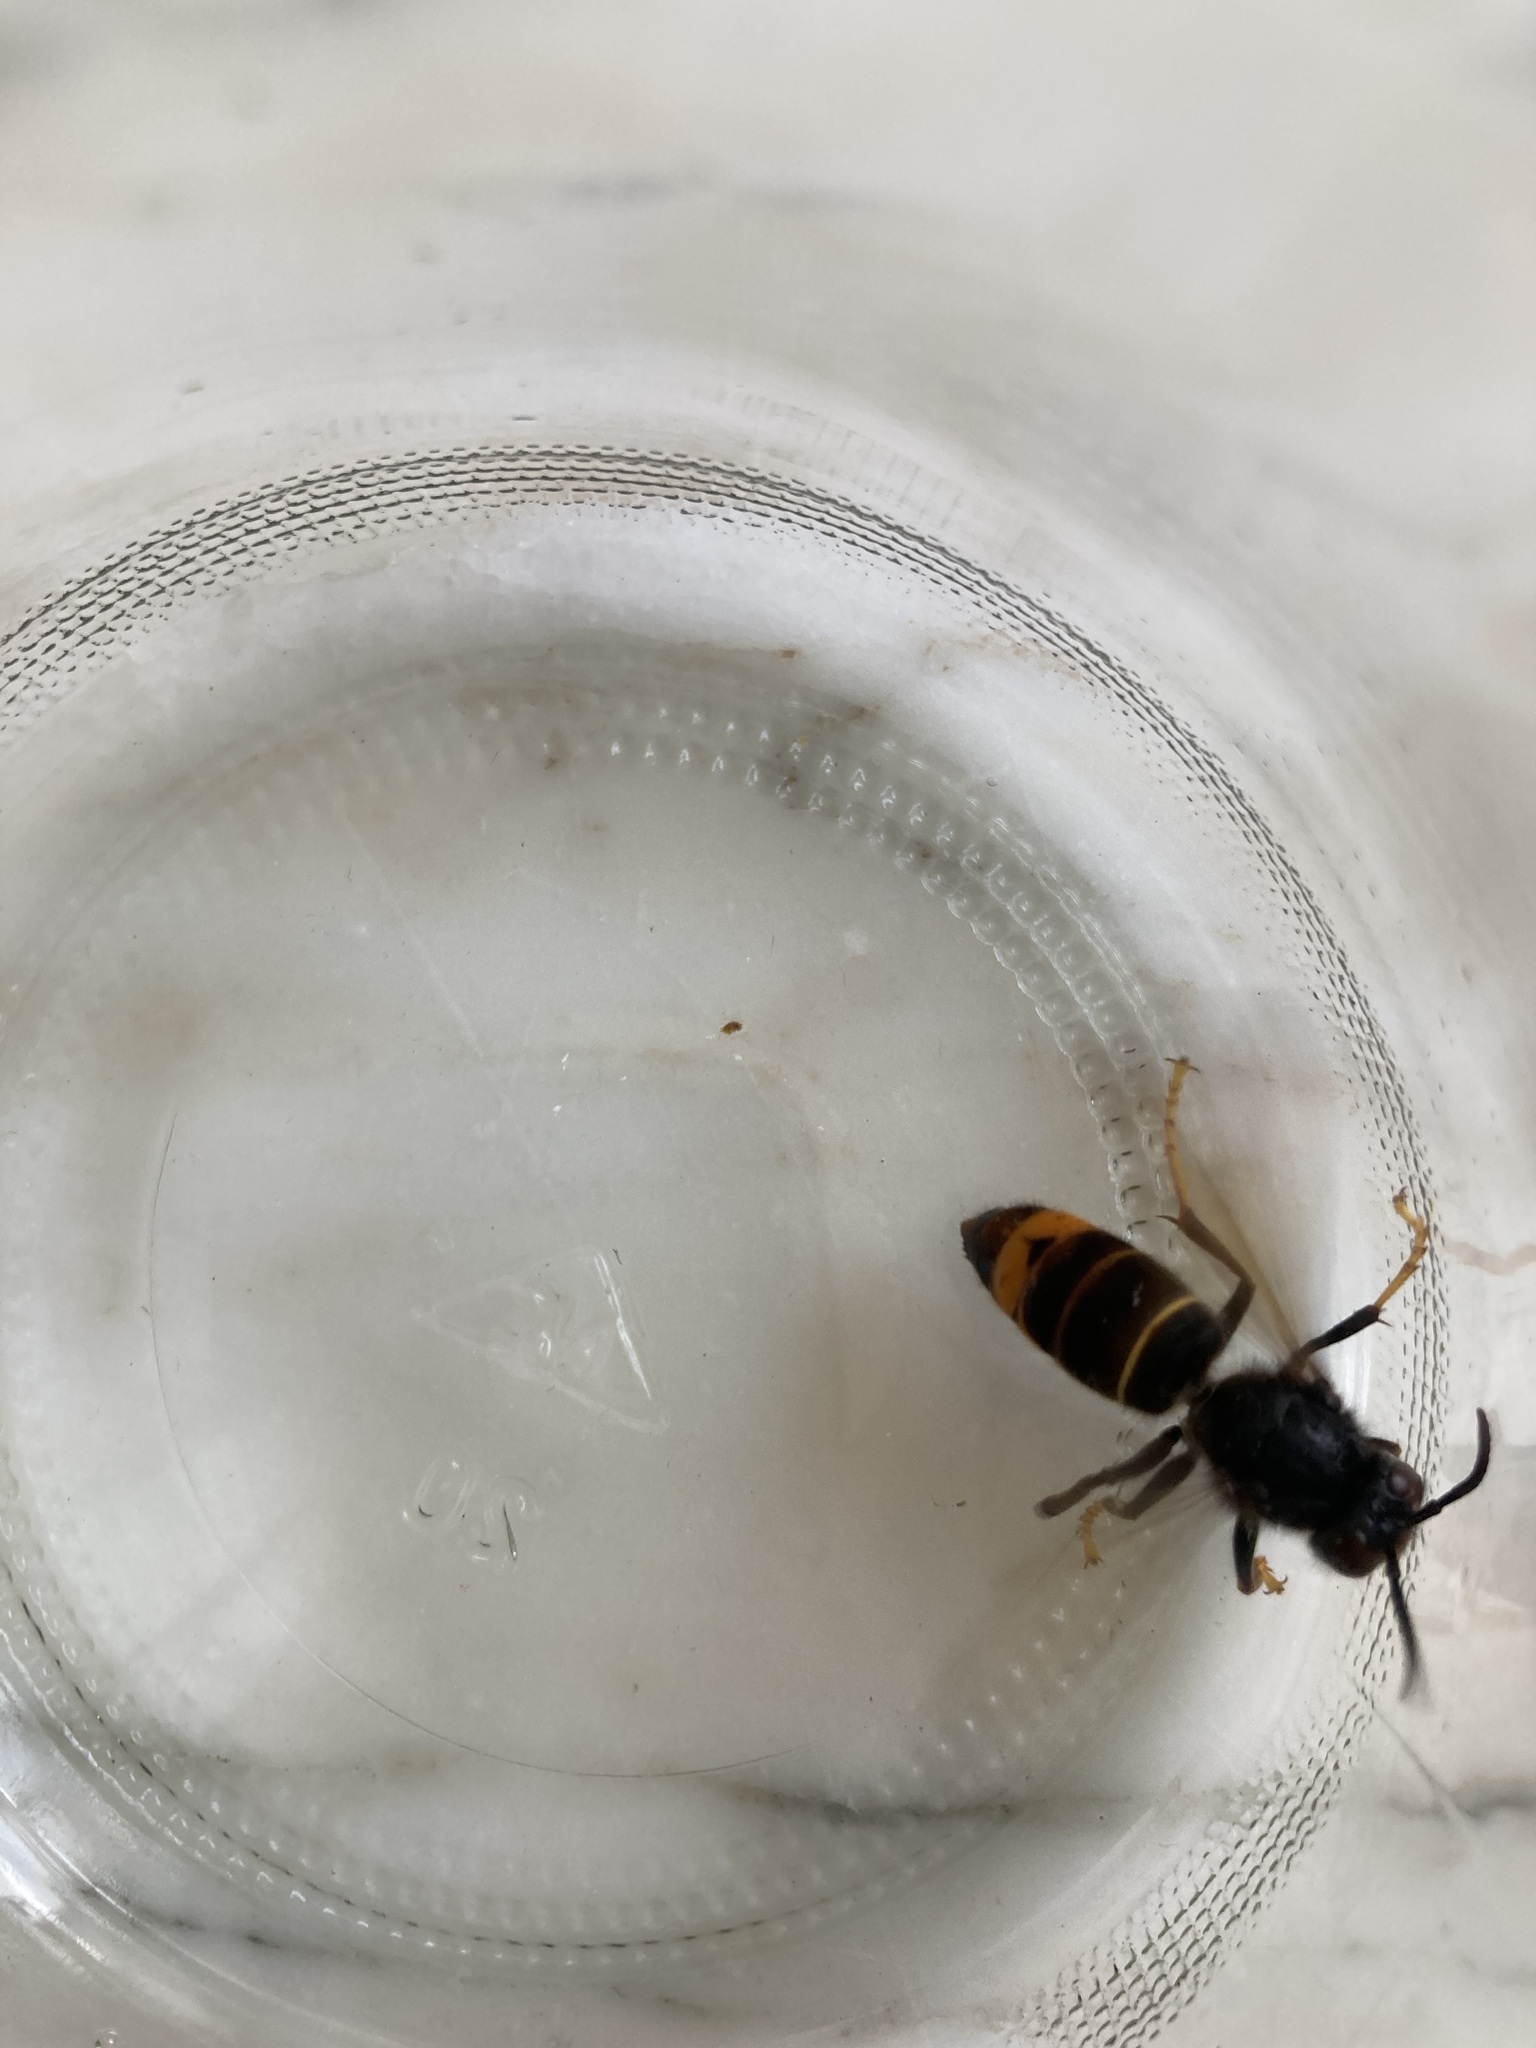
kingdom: Animalia
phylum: Arthropoda
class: Insecta
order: Hymenoptera
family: Vespidae
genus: Vespa
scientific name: Vespa velutina
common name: Asian hornet
